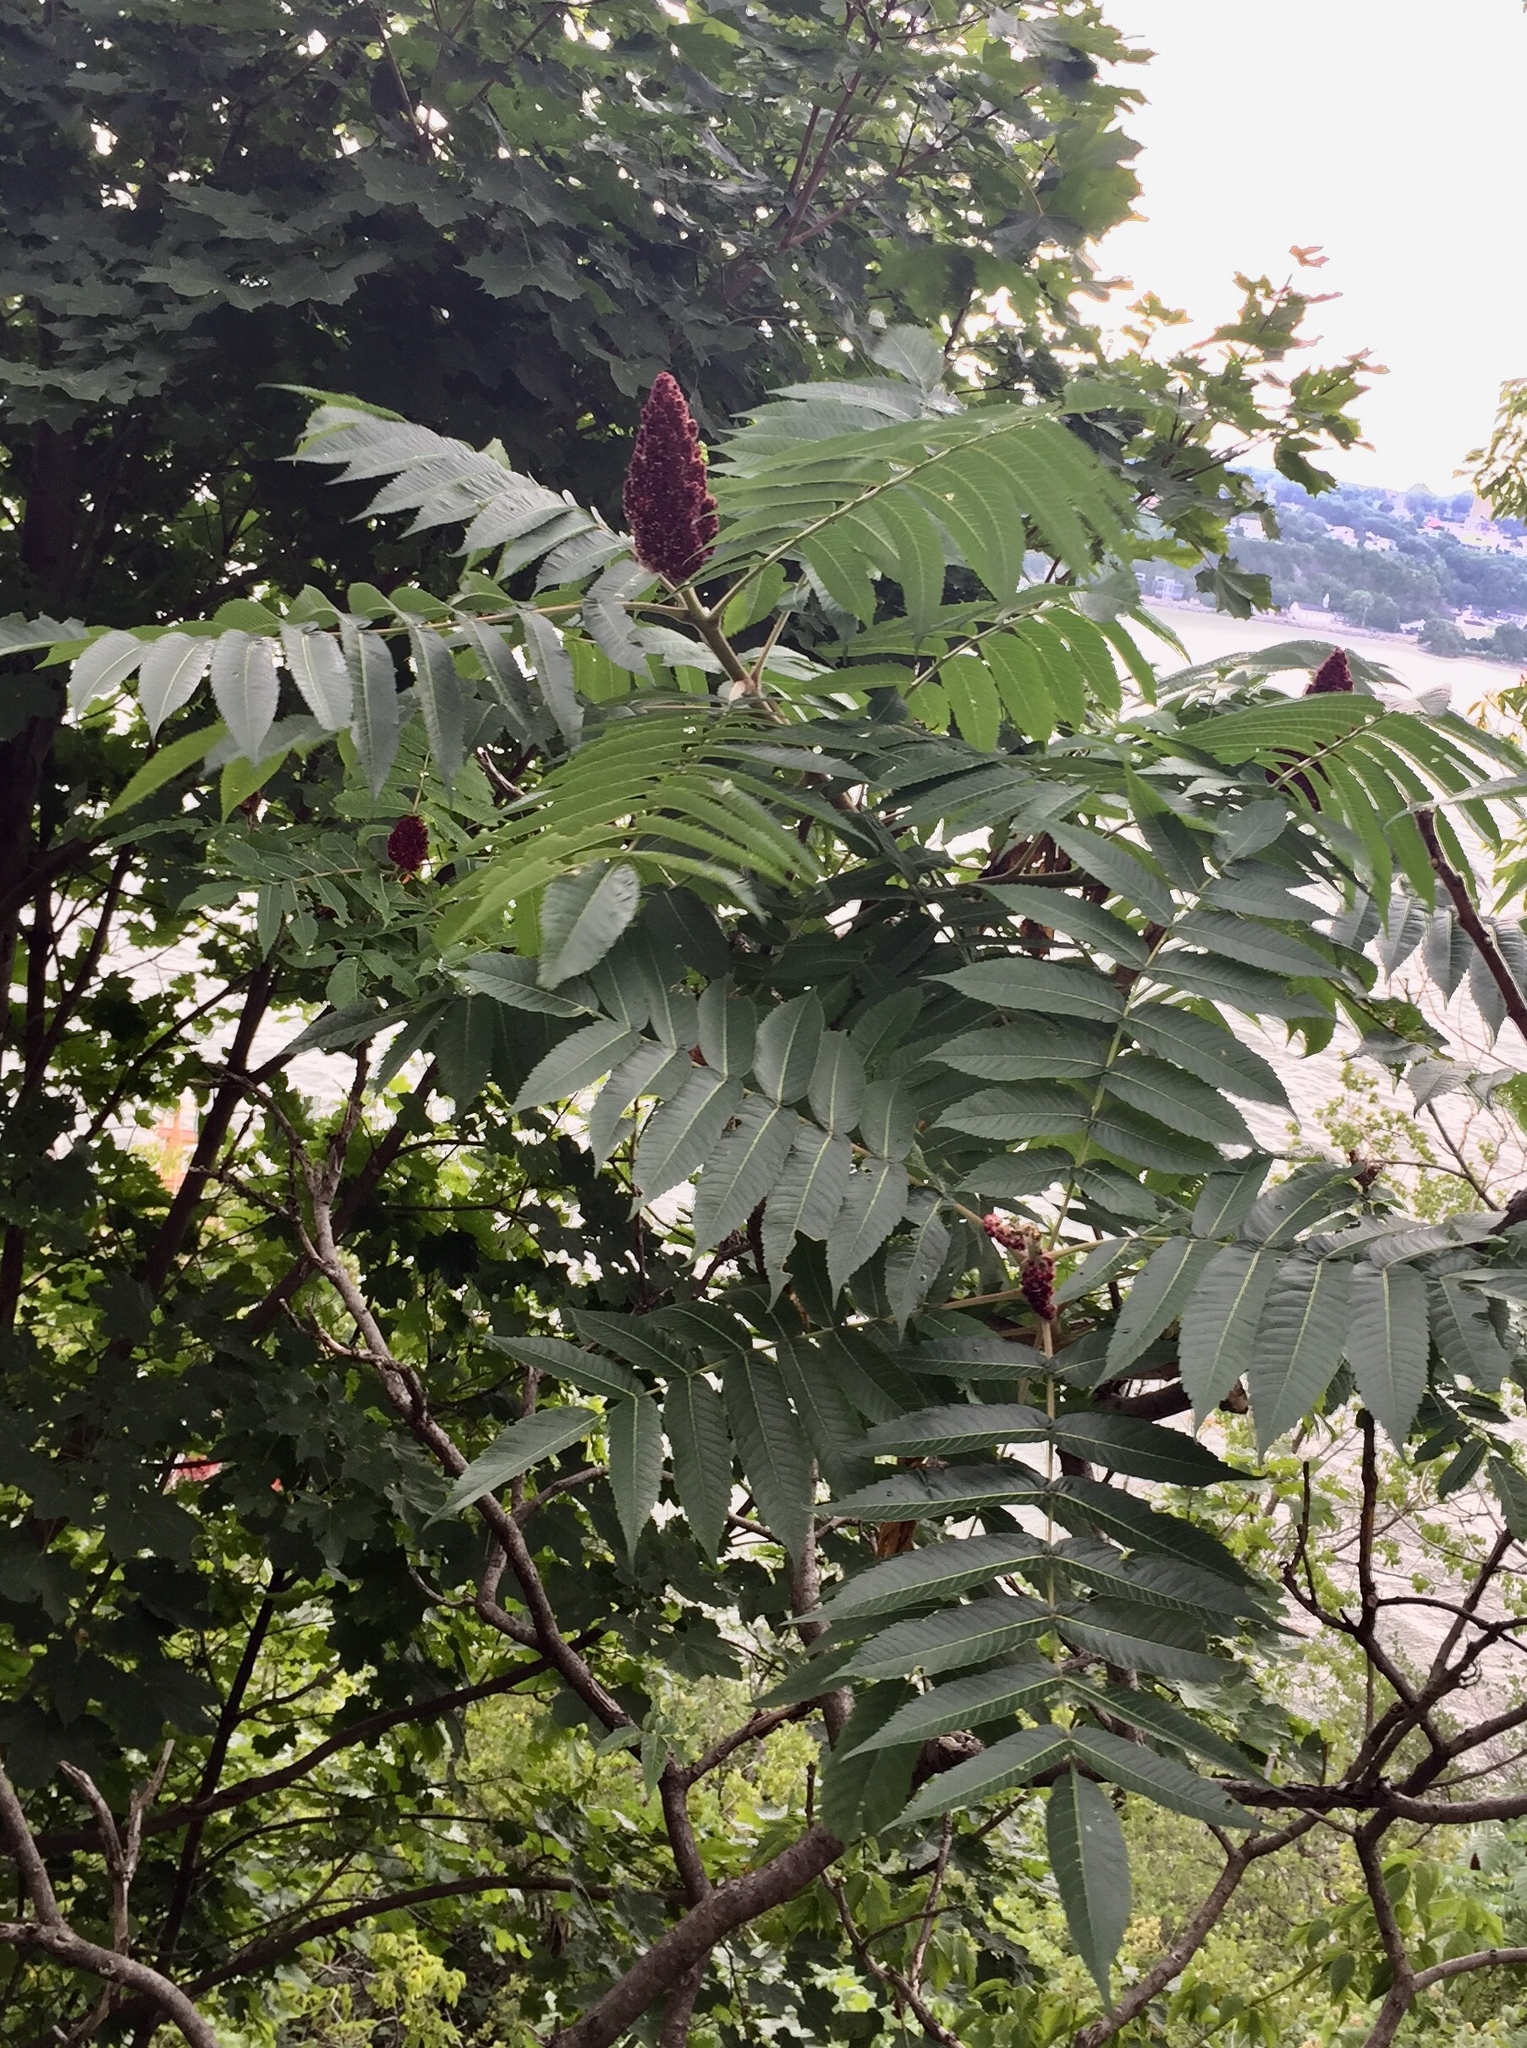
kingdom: Plantae
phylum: Tracheophyta
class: Magnoliopsida
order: Sapindales
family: Anacardiaceae
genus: Rhus
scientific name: Rhus typhina
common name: Staghorn sumac
